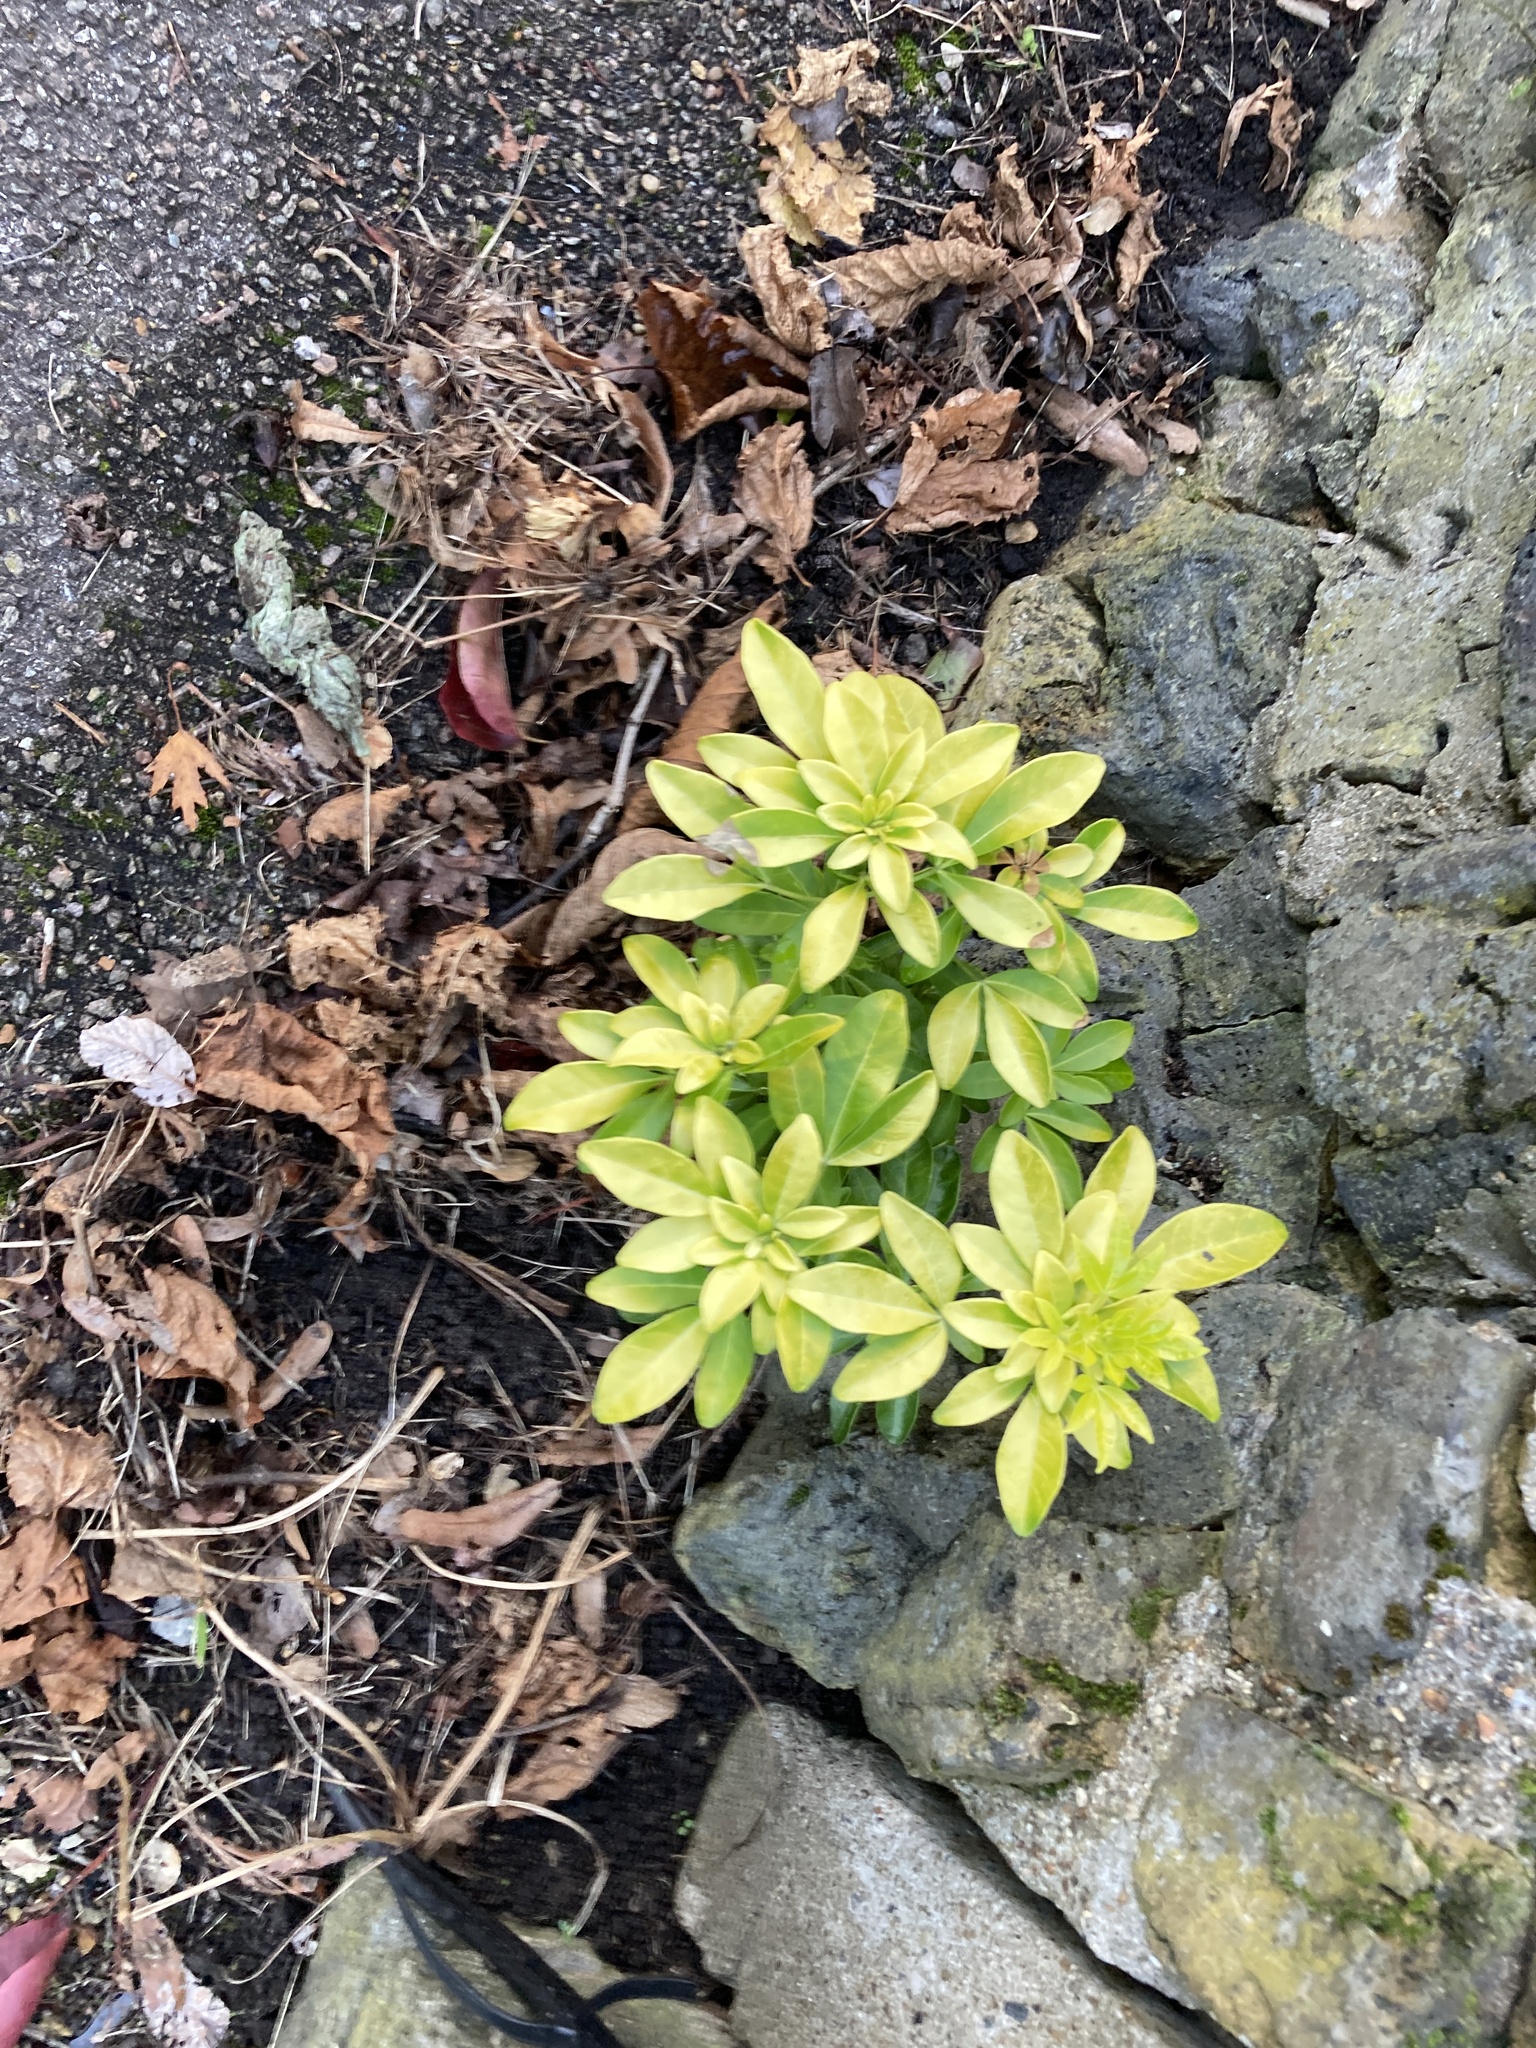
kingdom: Plantae
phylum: Tracheophyta
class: Magnoliopsida
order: Sapindales
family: Rutaceae
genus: Choisya
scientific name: Choisya ternata
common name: Mexican orange
